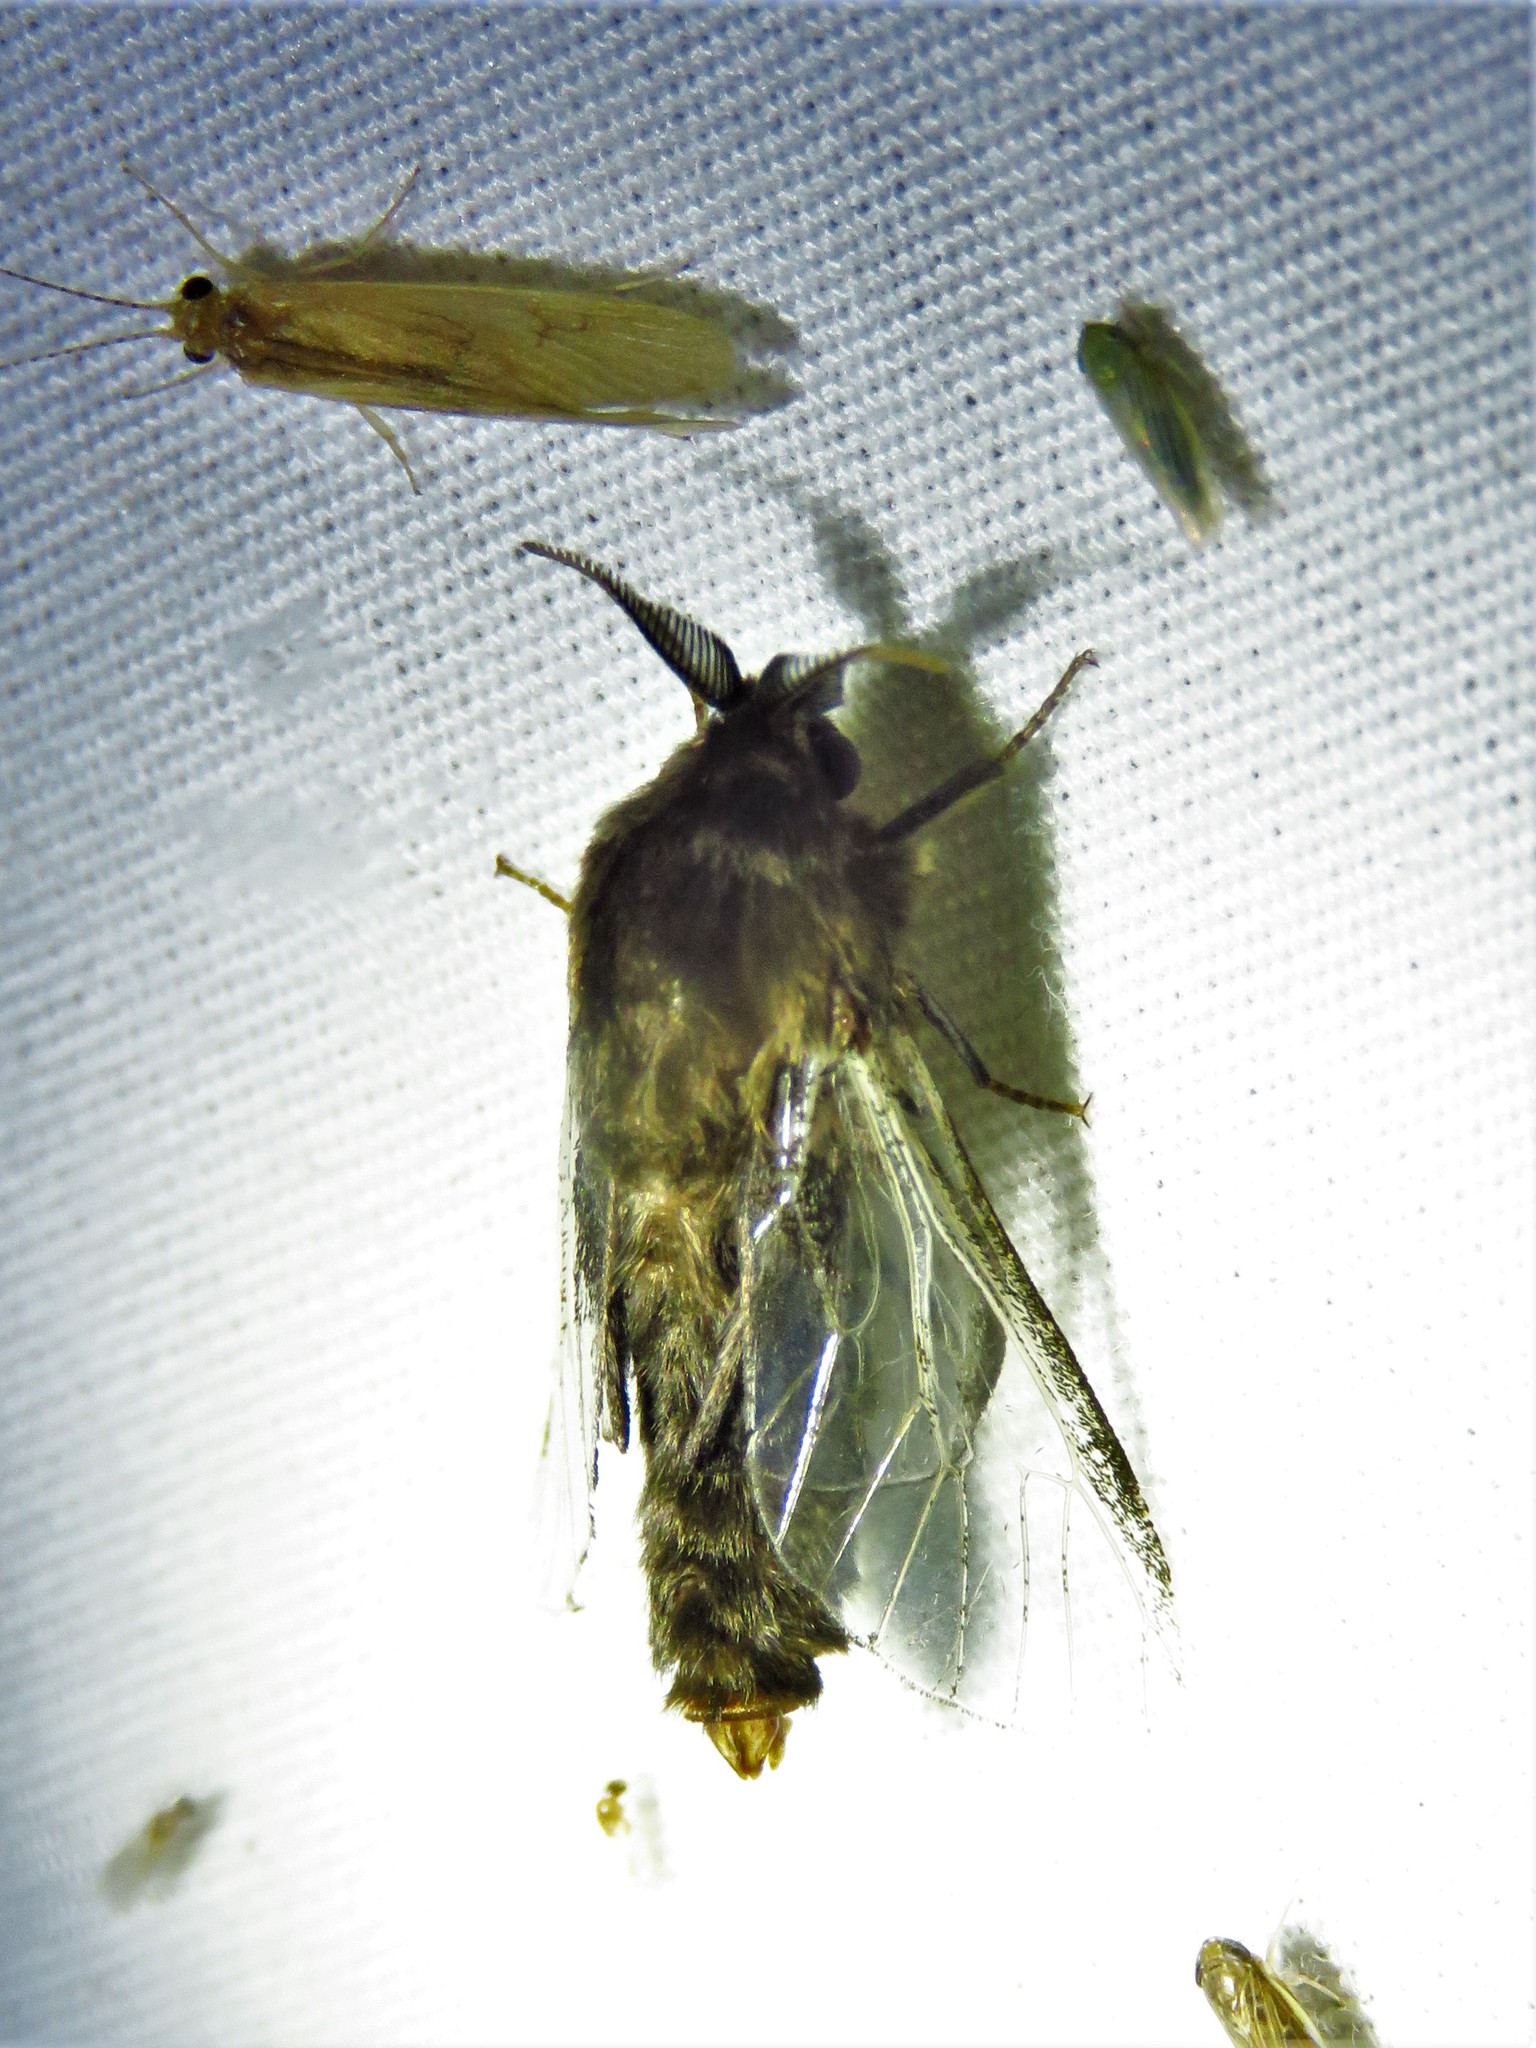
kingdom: Animalia
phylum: Arthropoda
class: Insecta
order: Lepidoptera
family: Psychidae
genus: Thyridopteryx
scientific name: Thyridopteryx ephemeraeformis
